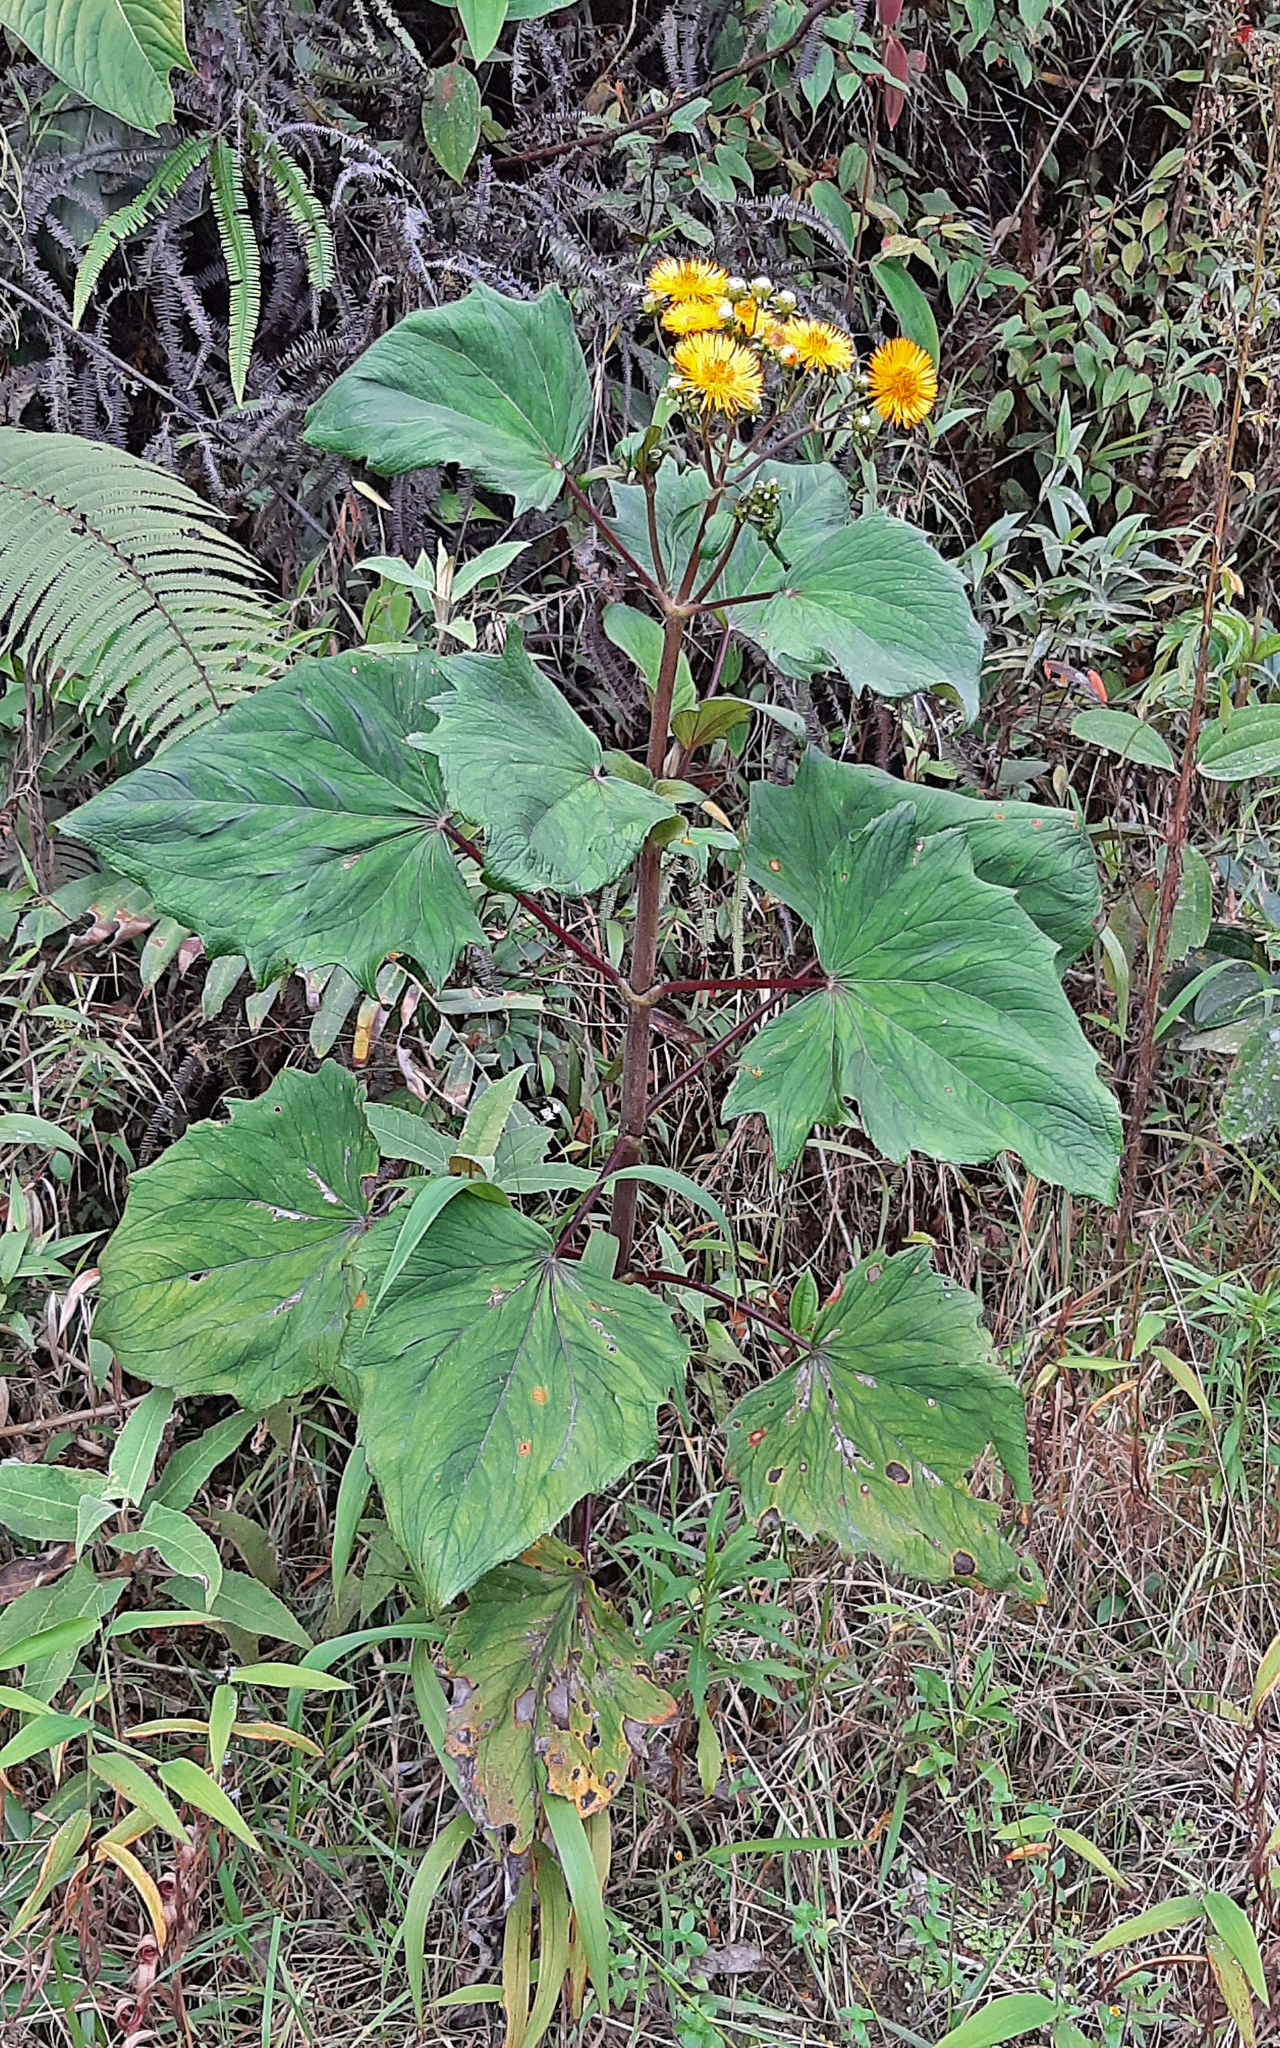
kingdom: Plantae
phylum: Tracheophyta
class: Magnoliopsida
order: Asterales
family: Asteraceae
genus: Erato
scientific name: Erato vulcanica
